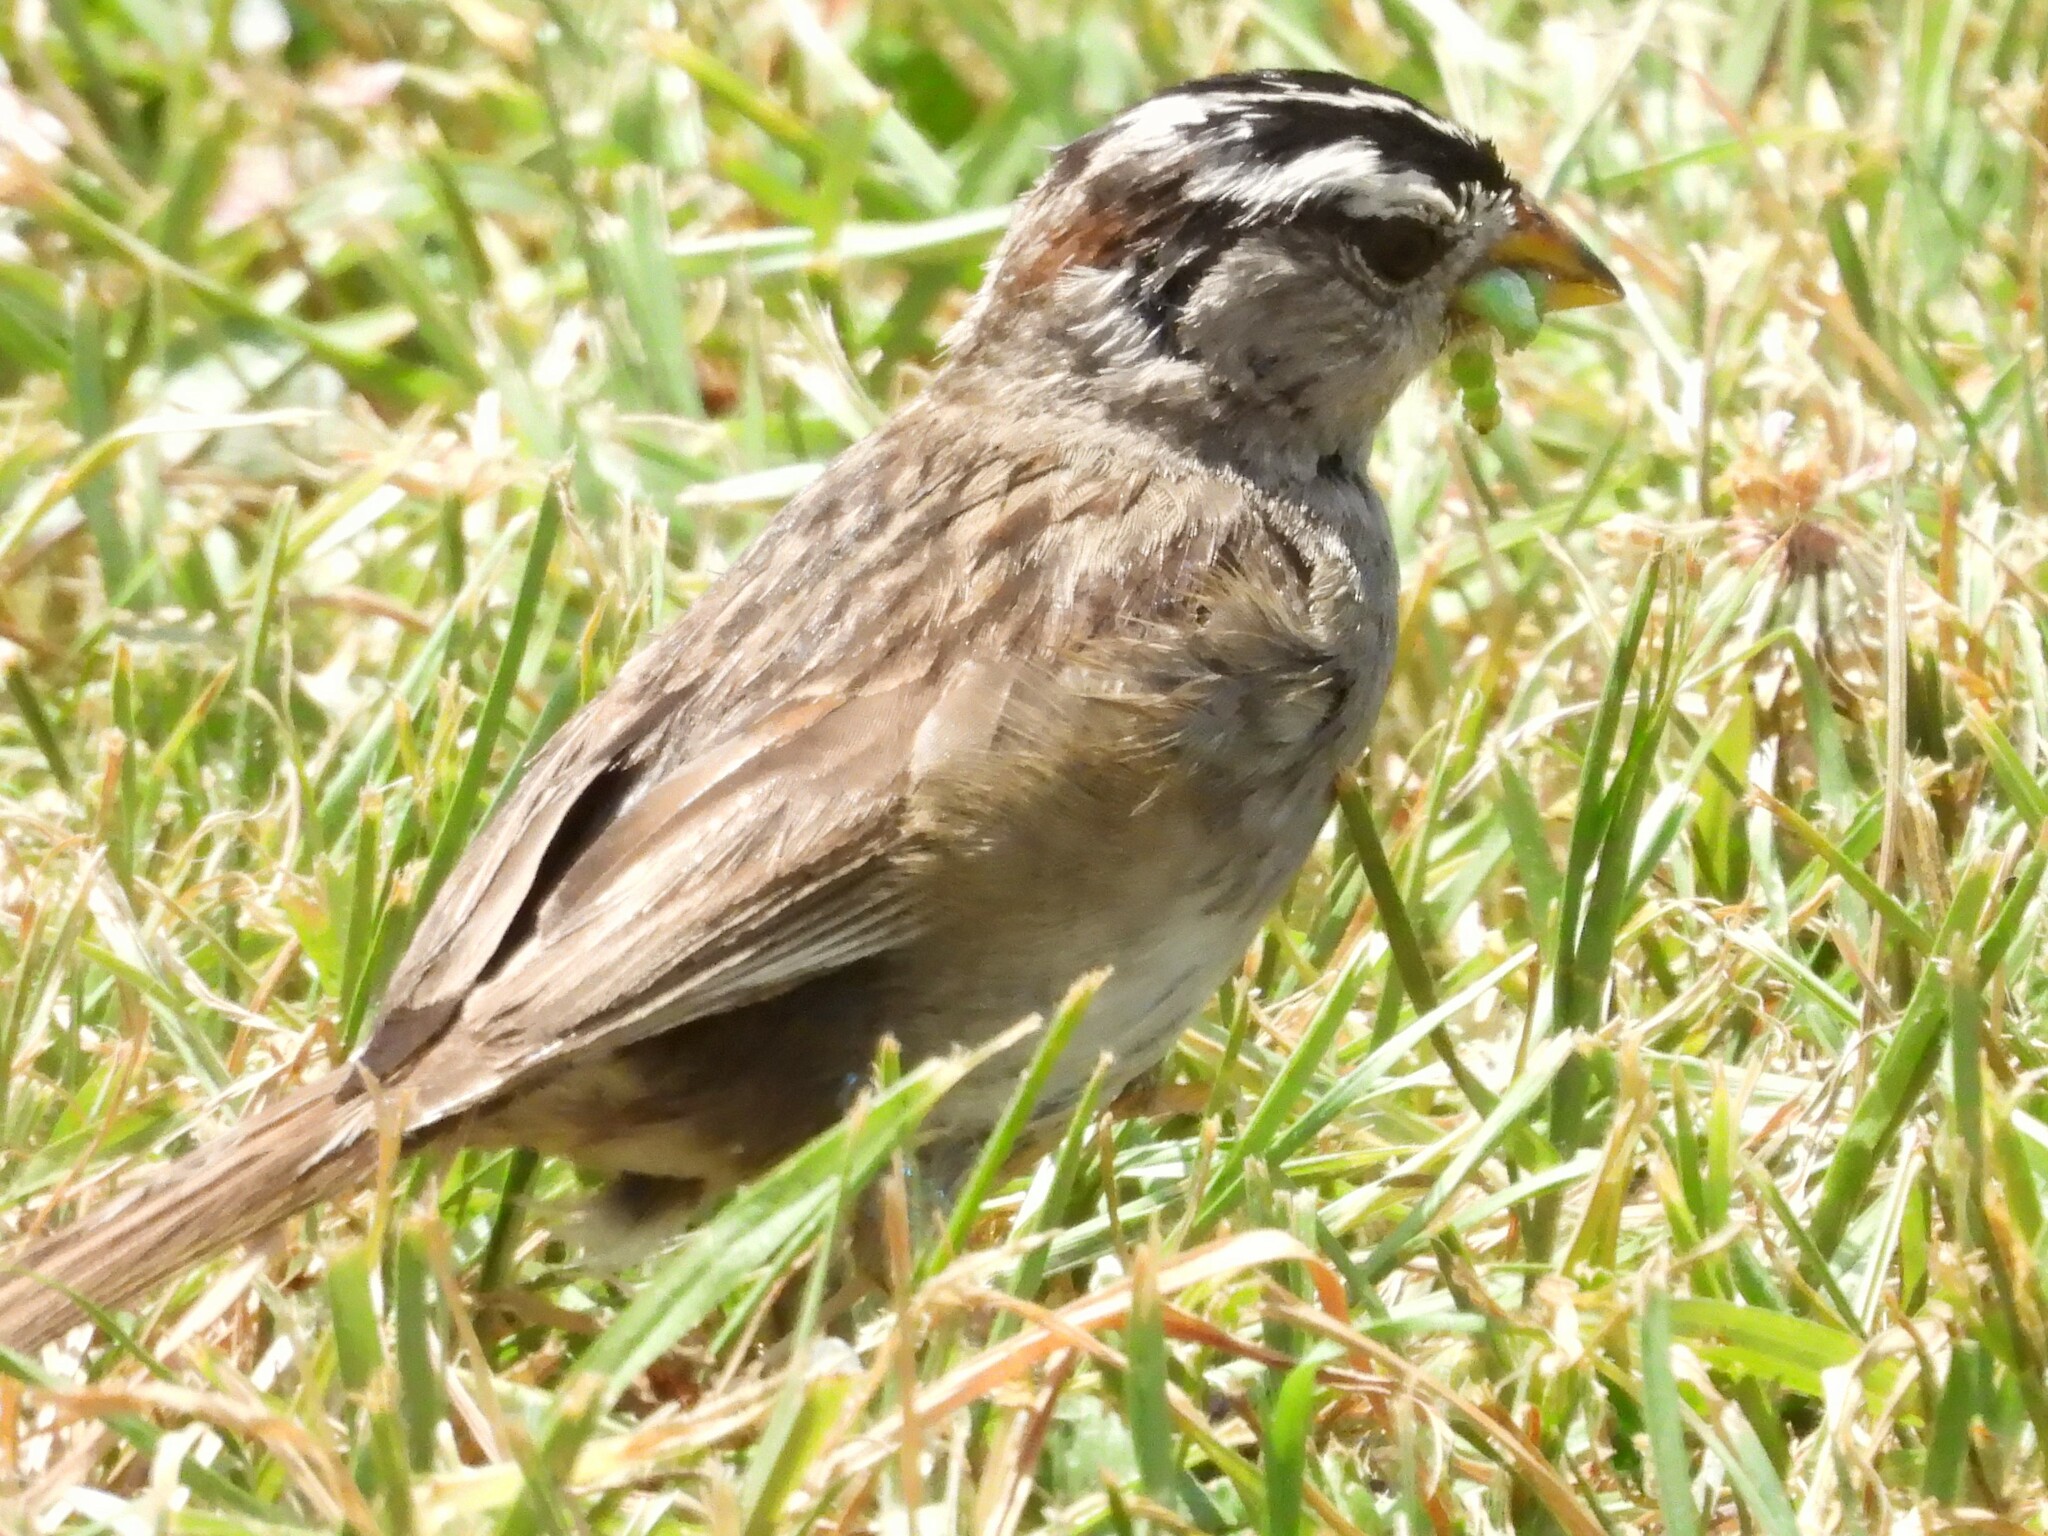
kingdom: Animalia
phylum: Chordata
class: Aves
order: Passeriformes
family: Passerellidae
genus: Zonotrichia
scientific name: Zonotrichia leucophrys
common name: White-crowned sparrow
